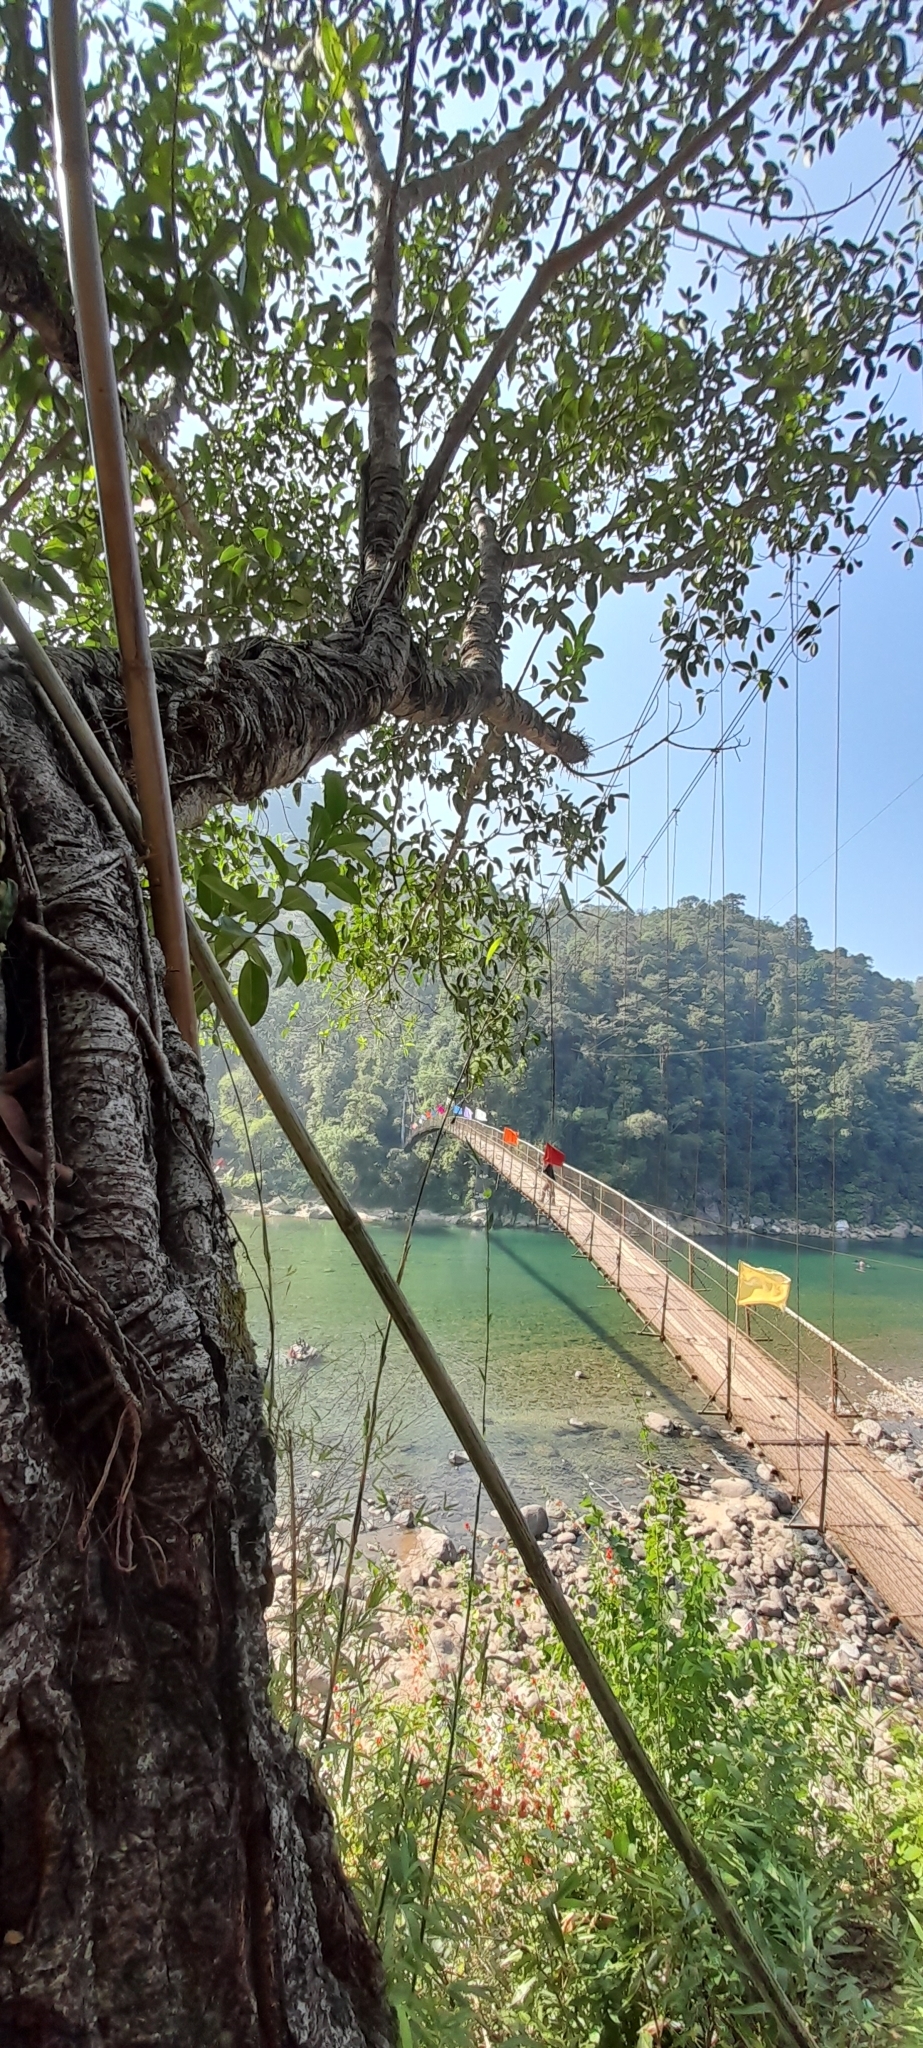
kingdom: Plantae
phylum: Tracheophyta
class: Magnoliopsida
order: Rosales
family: Moraceae
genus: Ficus
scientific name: Ficus elastica
